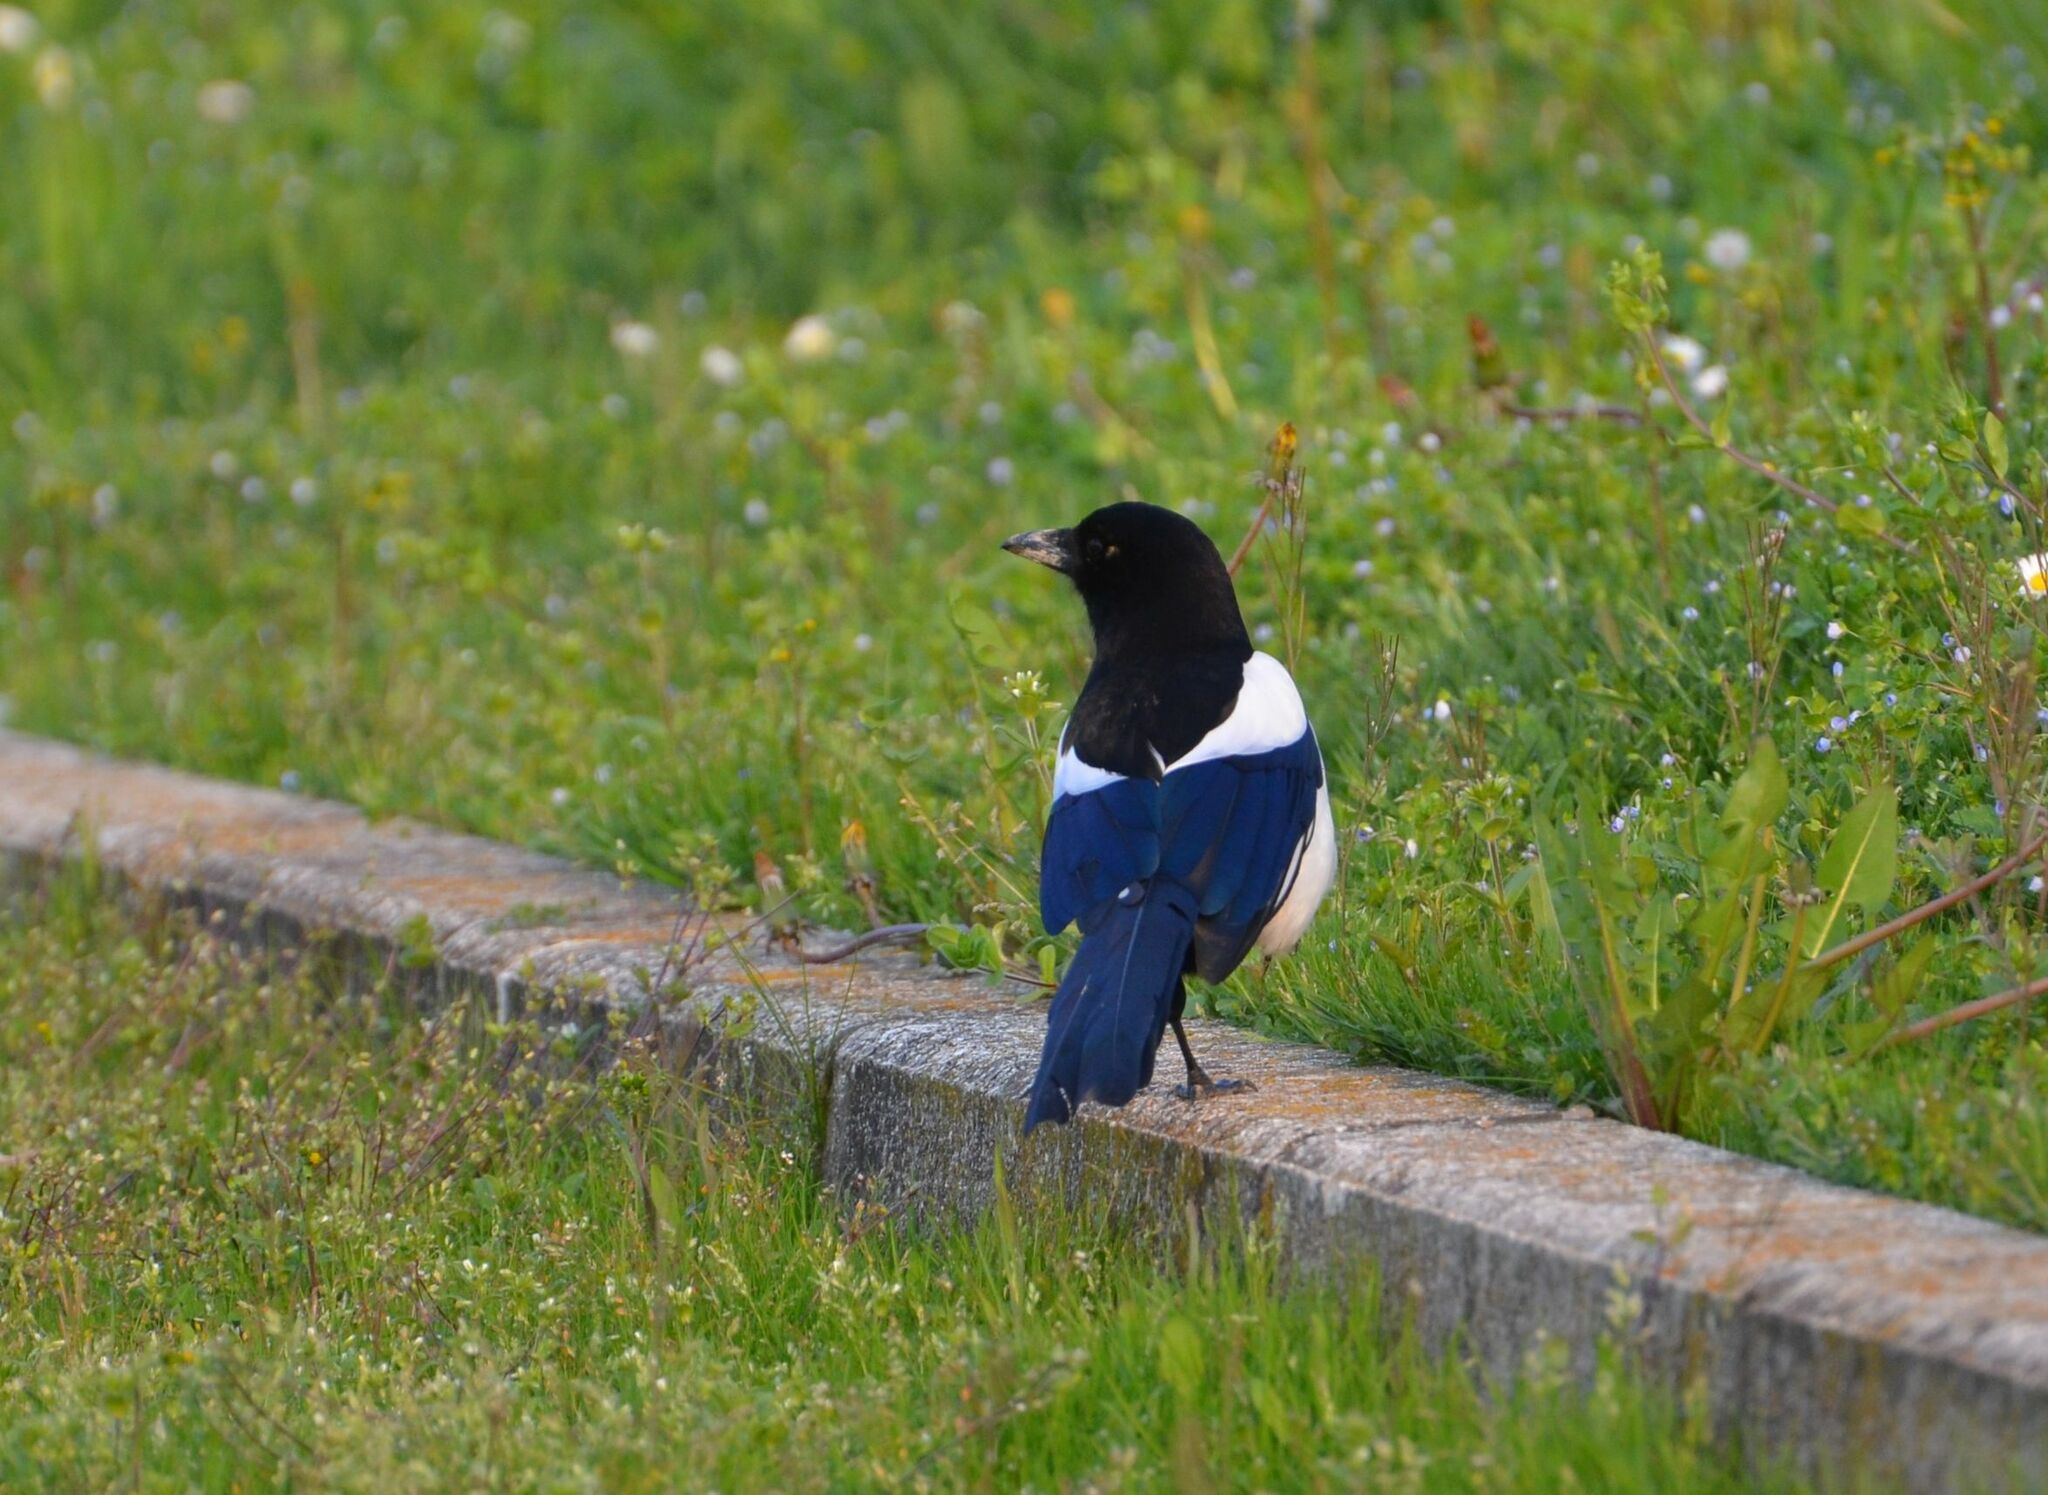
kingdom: Animalia
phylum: Chordata
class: Aves
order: Passeriformes
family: Corvidae
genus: Pica
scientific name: Pica pica
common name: Eurasian magpie
